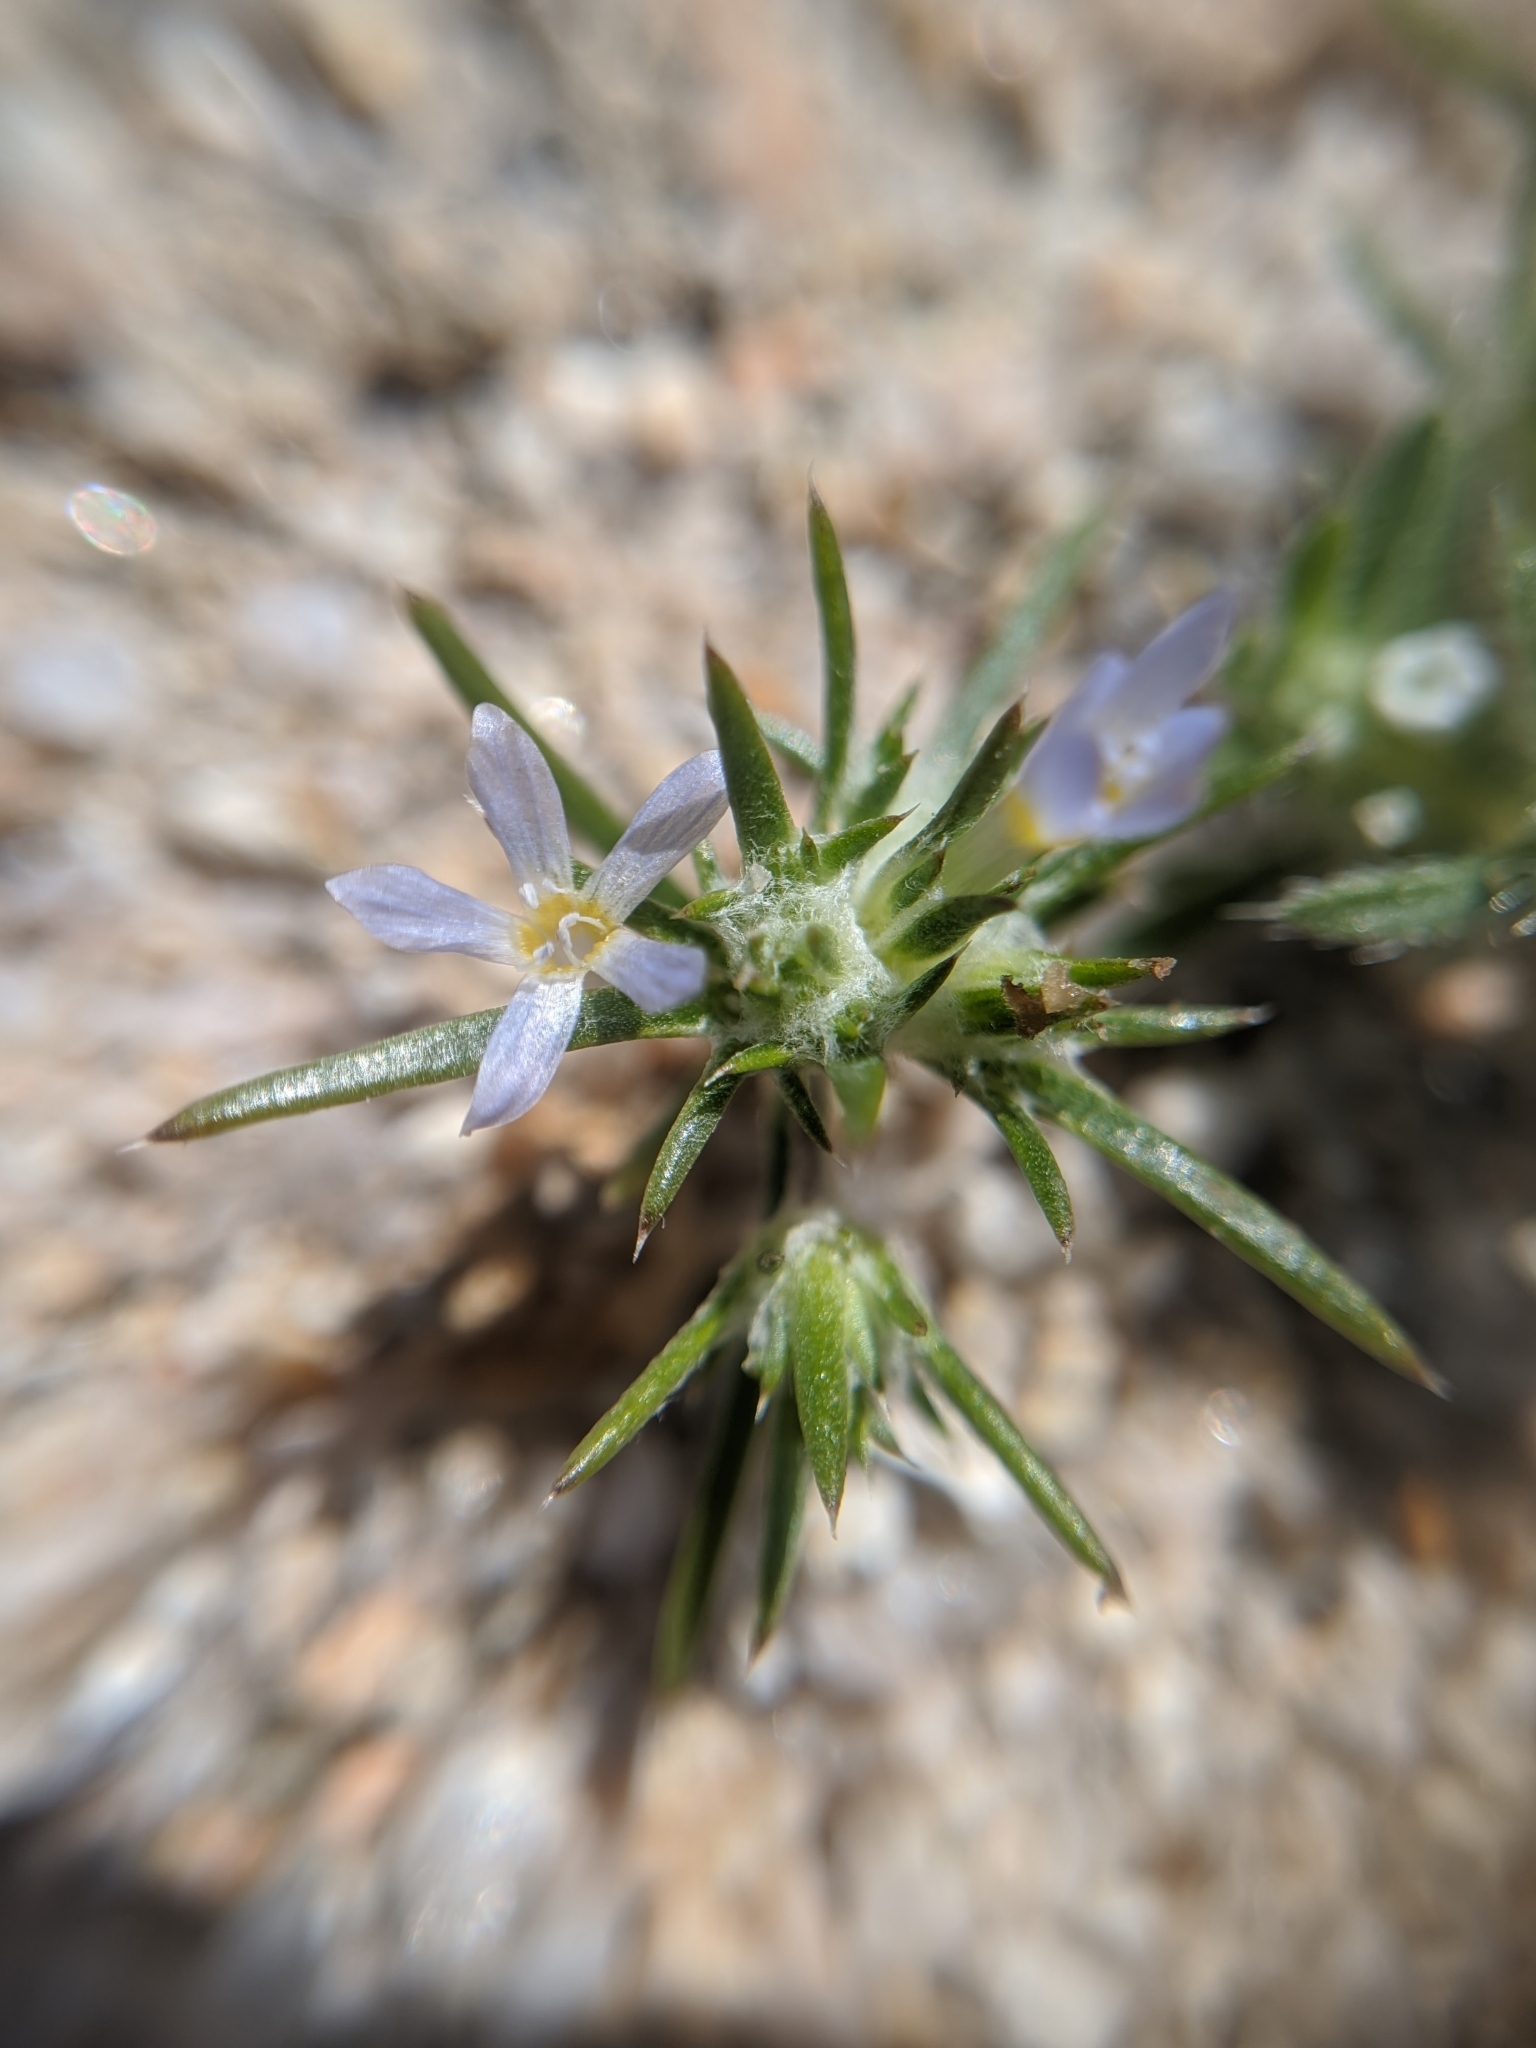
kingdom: Plantae
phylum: Tracheophyta
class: Magnoliopsida
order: Ericales
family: Polemoniaceae
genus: Eriastrum
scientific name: Eriastrum diffusum
